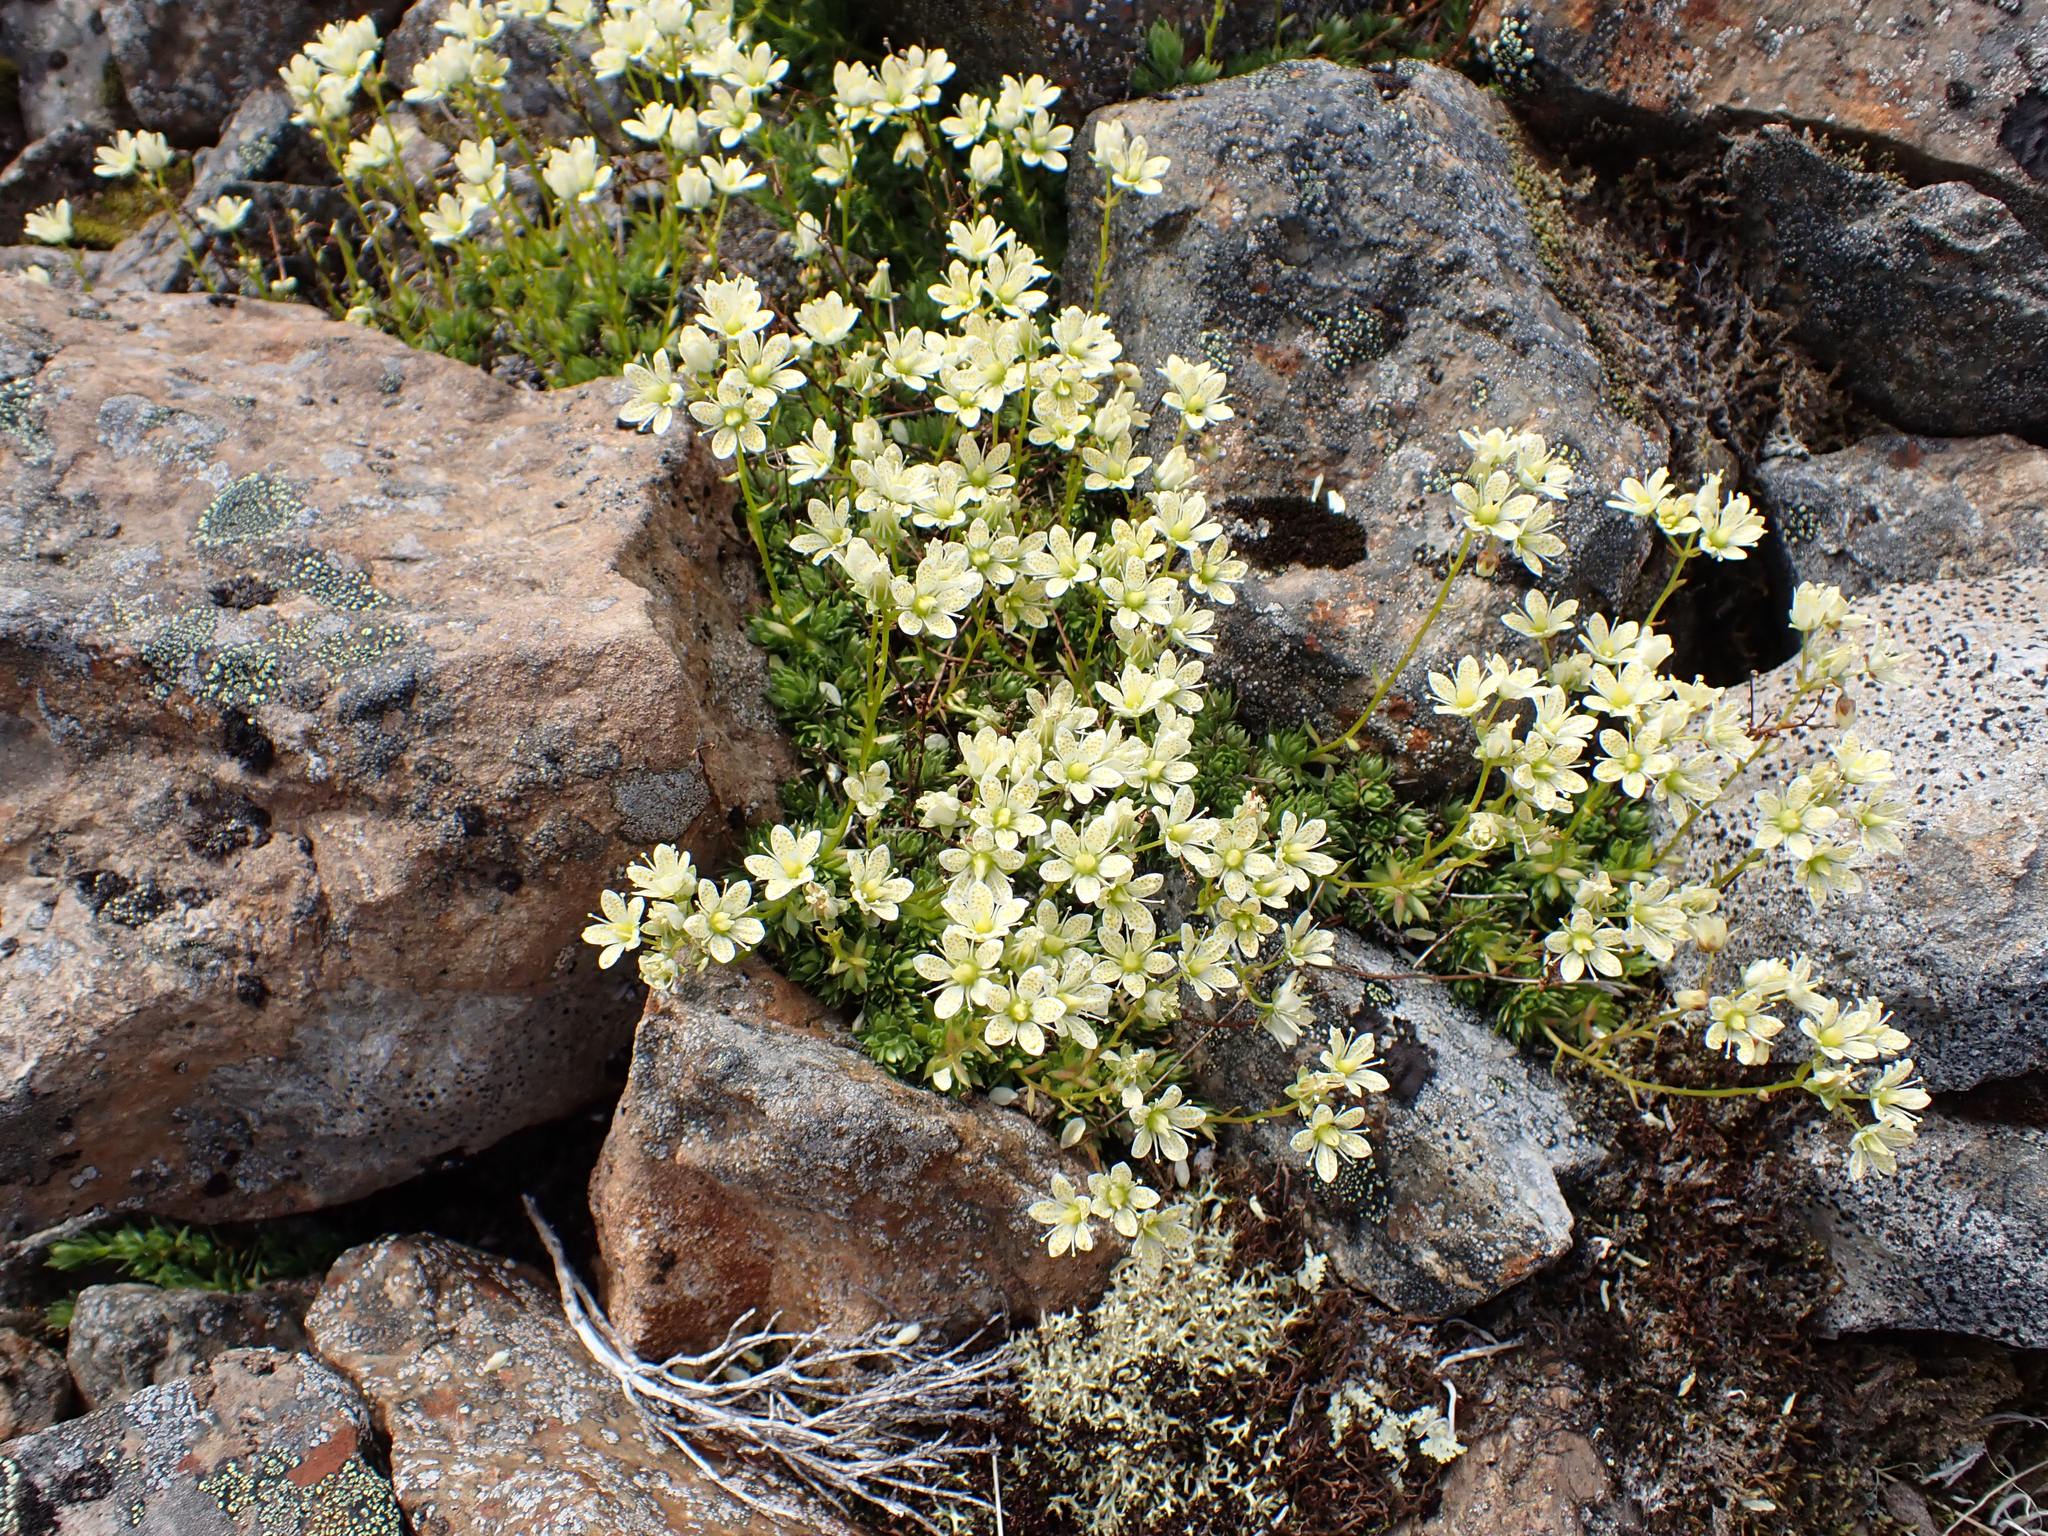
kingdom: Plantae
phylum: Tracheophyta
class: Magnoliopsida
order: Saxifragales
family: Saxifragaceae
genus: Saxifraga
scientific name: Saxifraga bronchialis
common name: Matted saxifrage
